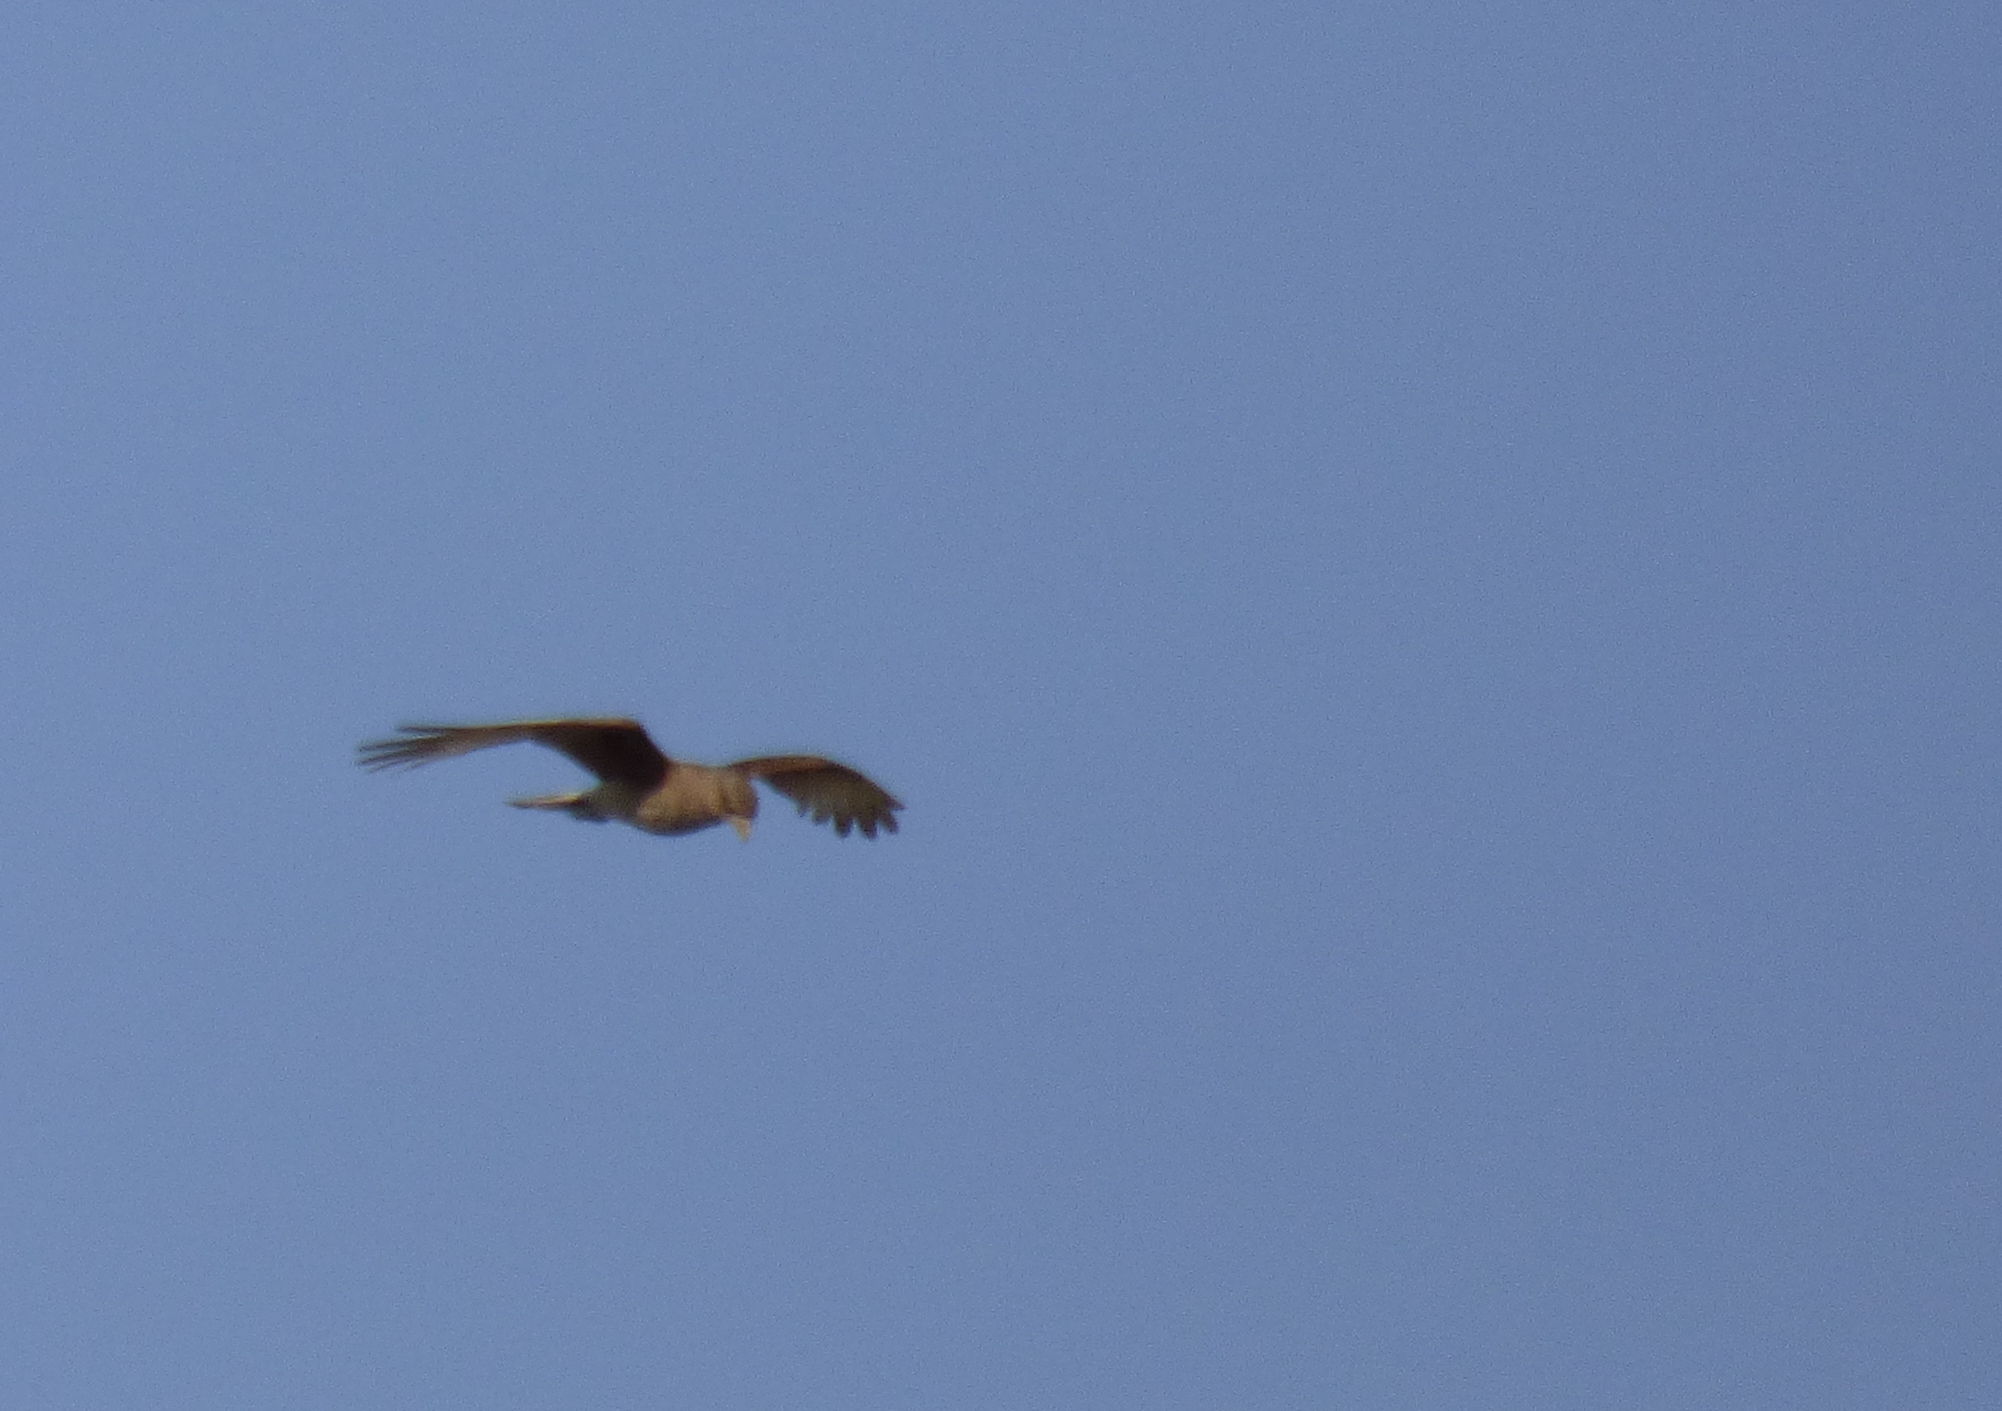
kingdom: Animalia
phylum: Chordata
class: Aves
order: Falconiformes
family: Falconidae
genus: Daptrius
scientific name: Daptrius
